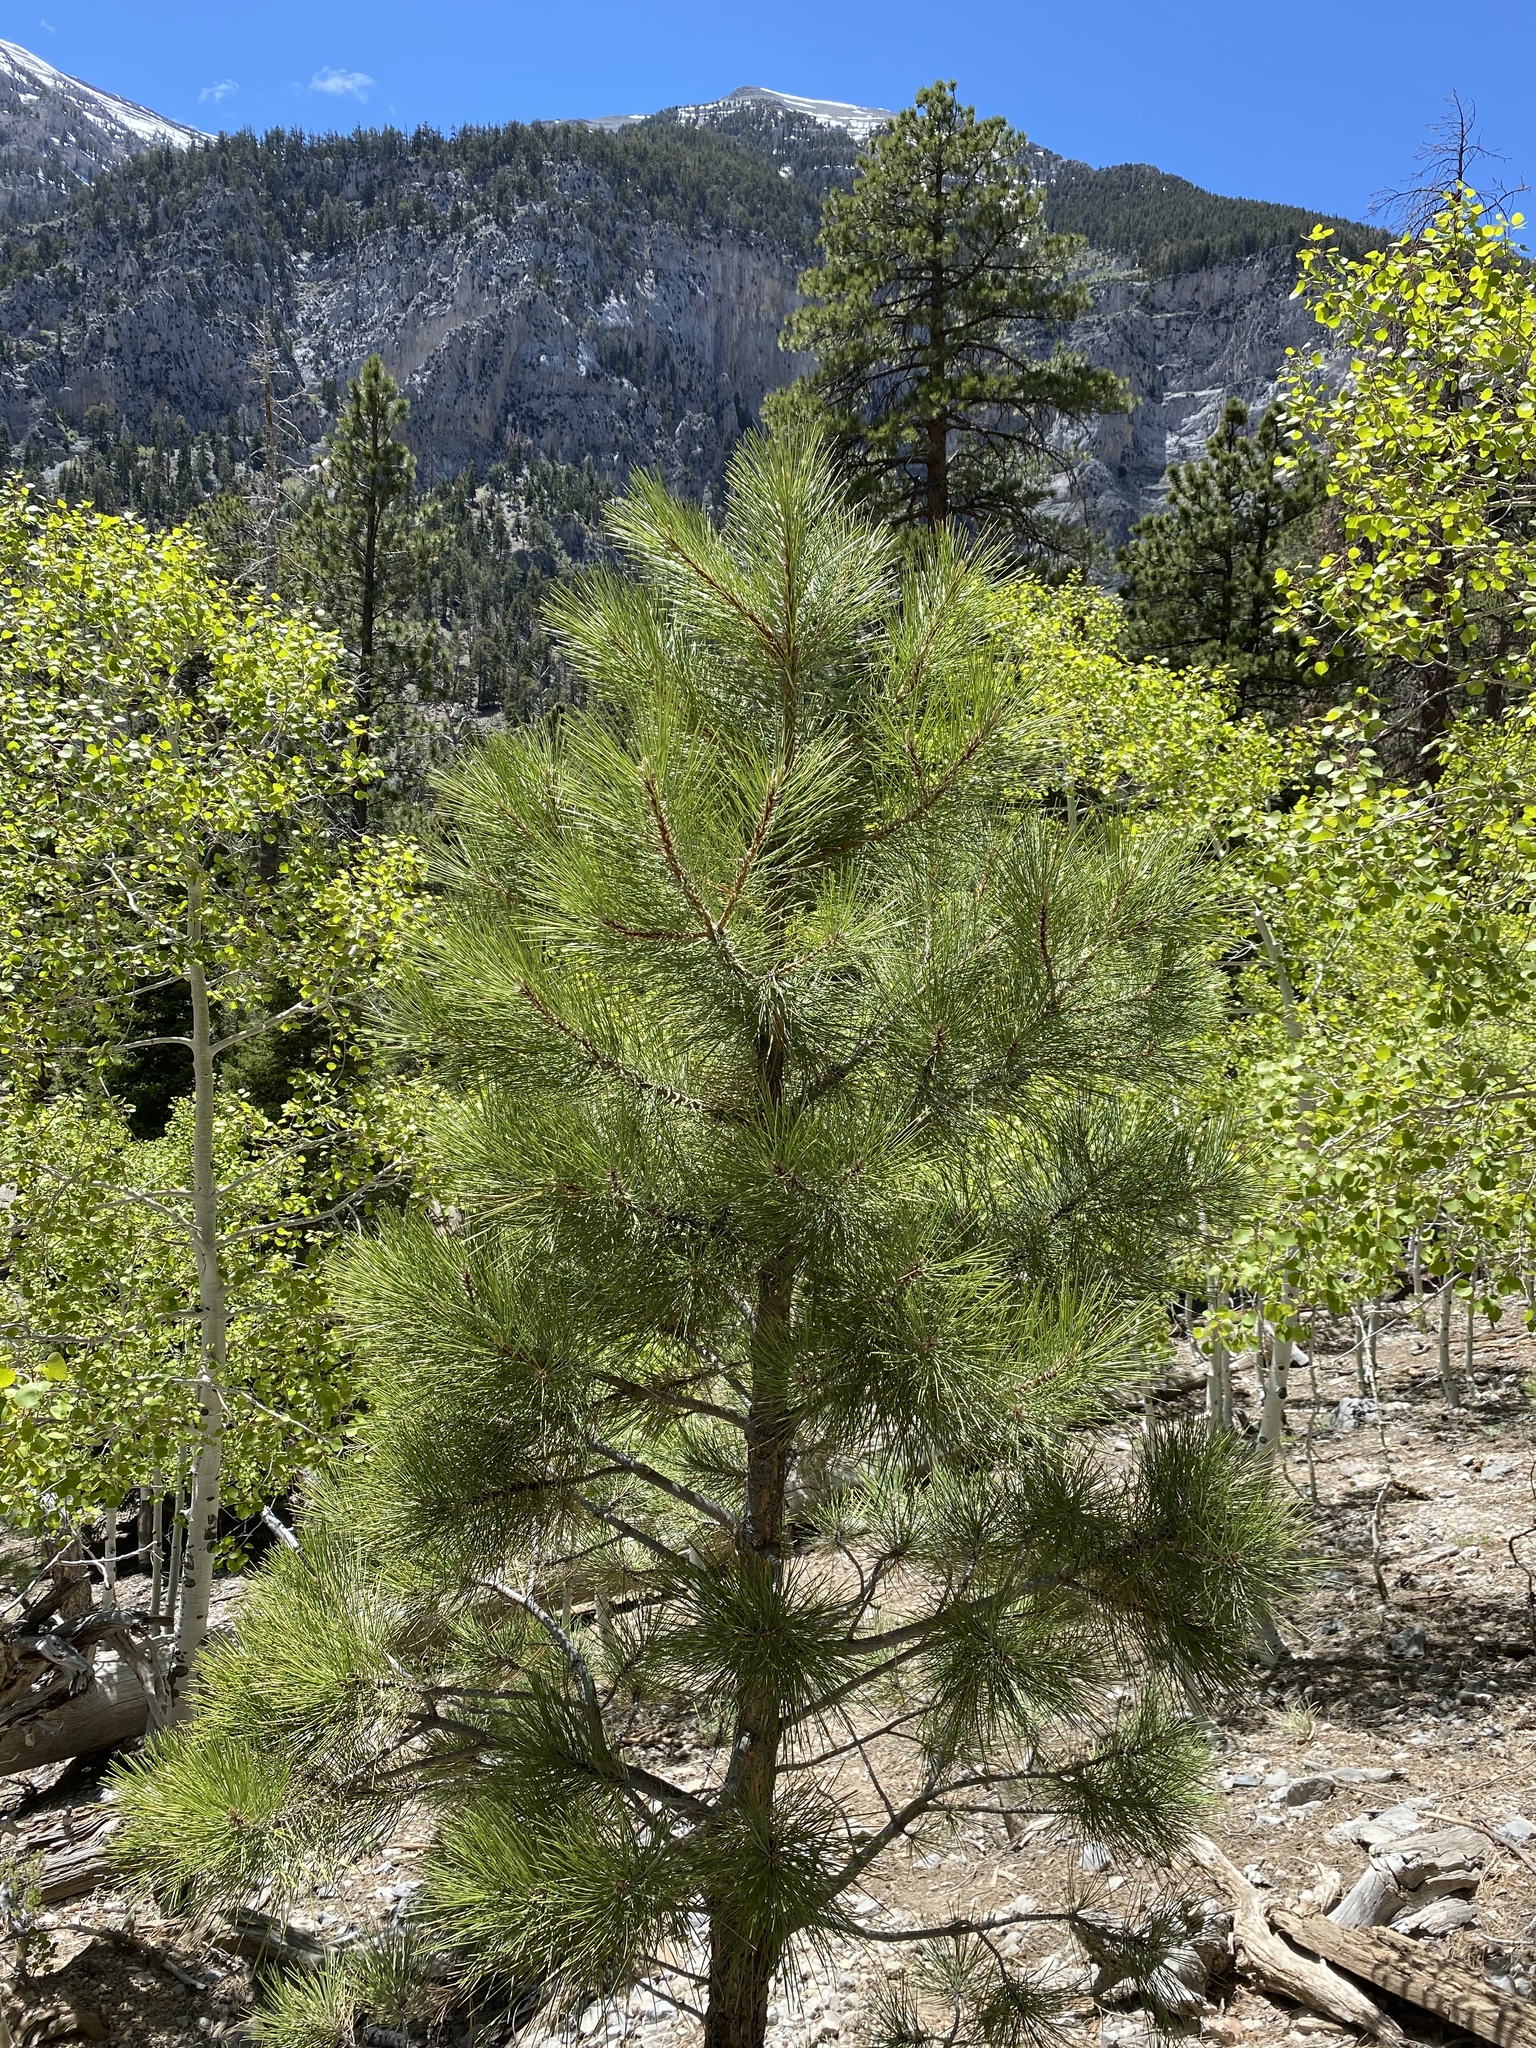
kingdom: Plantae
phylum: Tracheophyta
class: Pinopsida
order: Pinales
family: Pinaceae
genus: Pinus
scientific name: Pinus ponderosa
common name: Western yellow-pine
